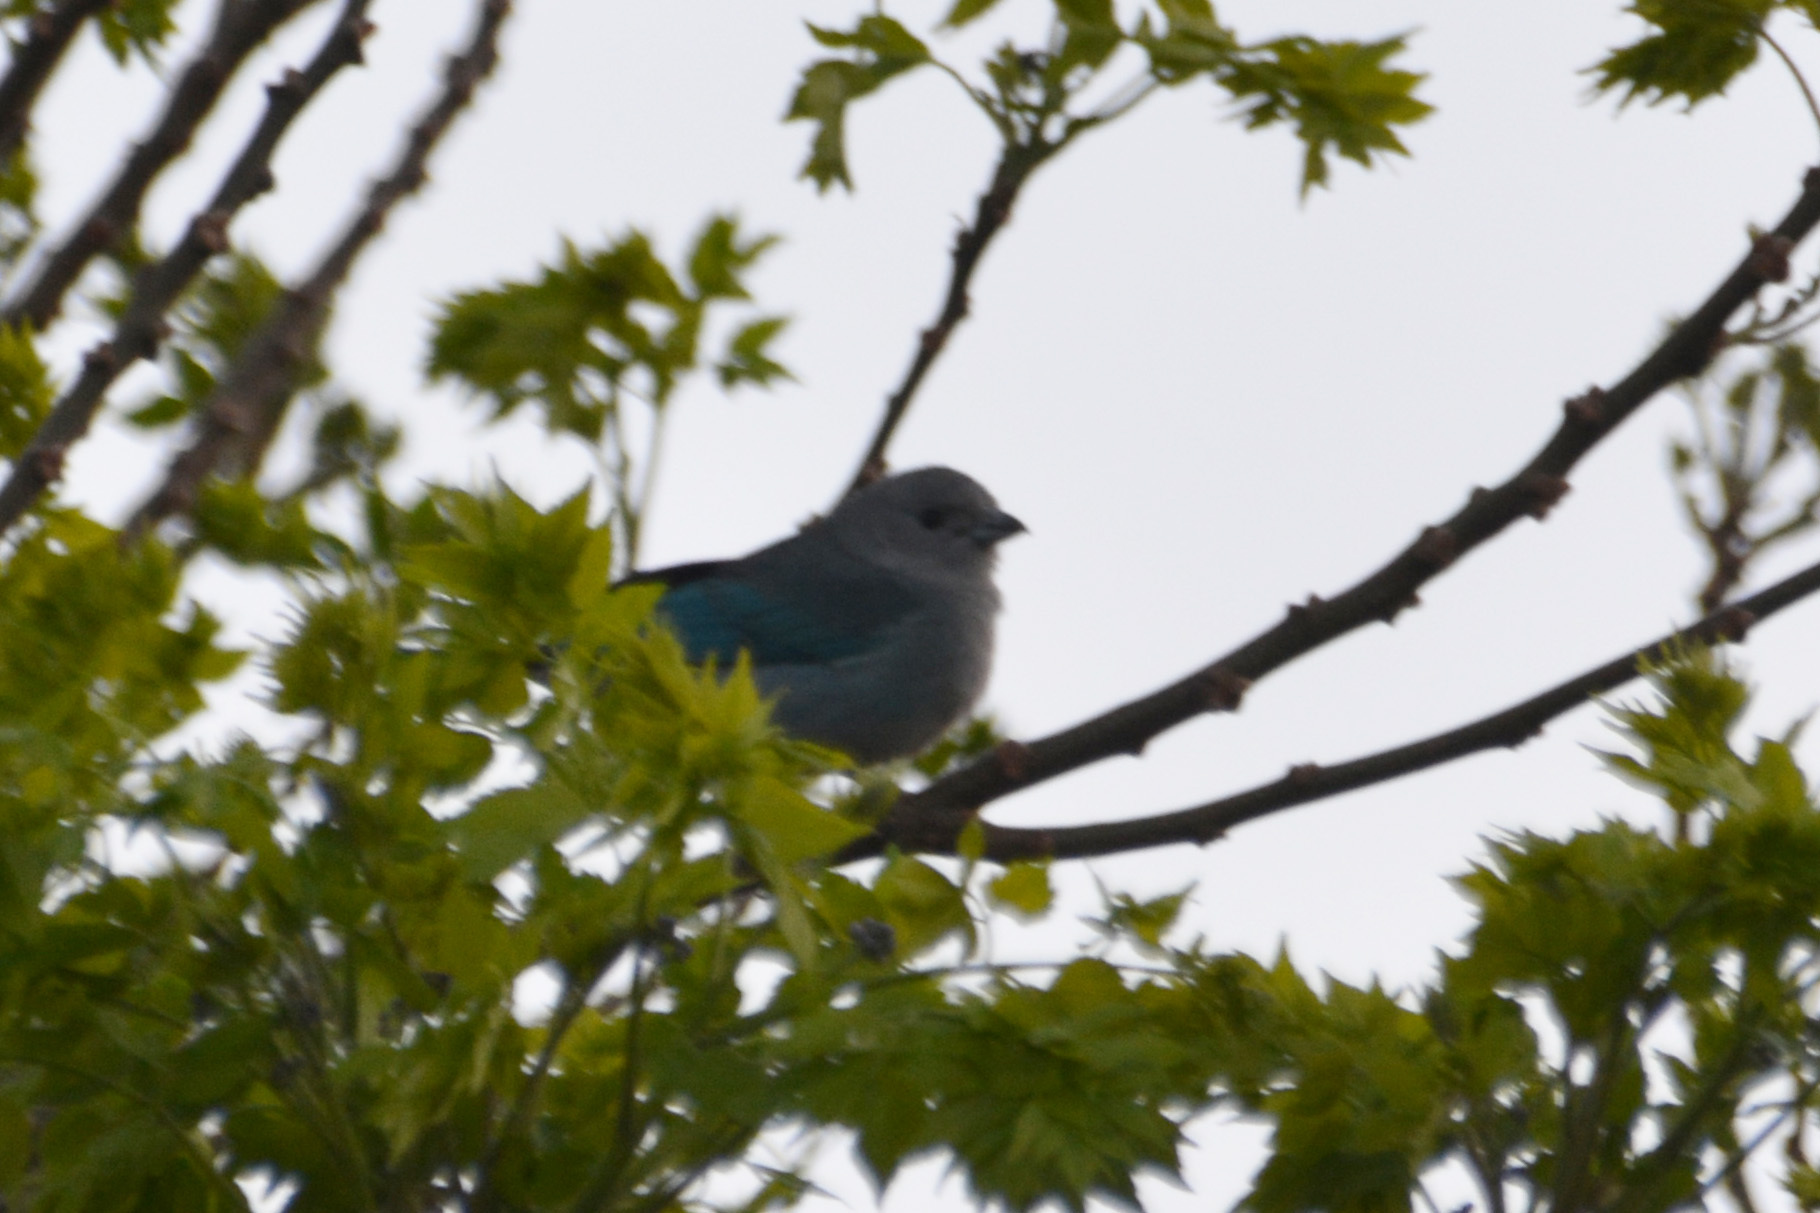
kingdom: Animalia
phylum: Chordata
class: Aves
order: Passeriformes
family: Thraupidae
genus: Thraupis
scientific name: Thraupis sayaca
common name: Sayaca tanager
